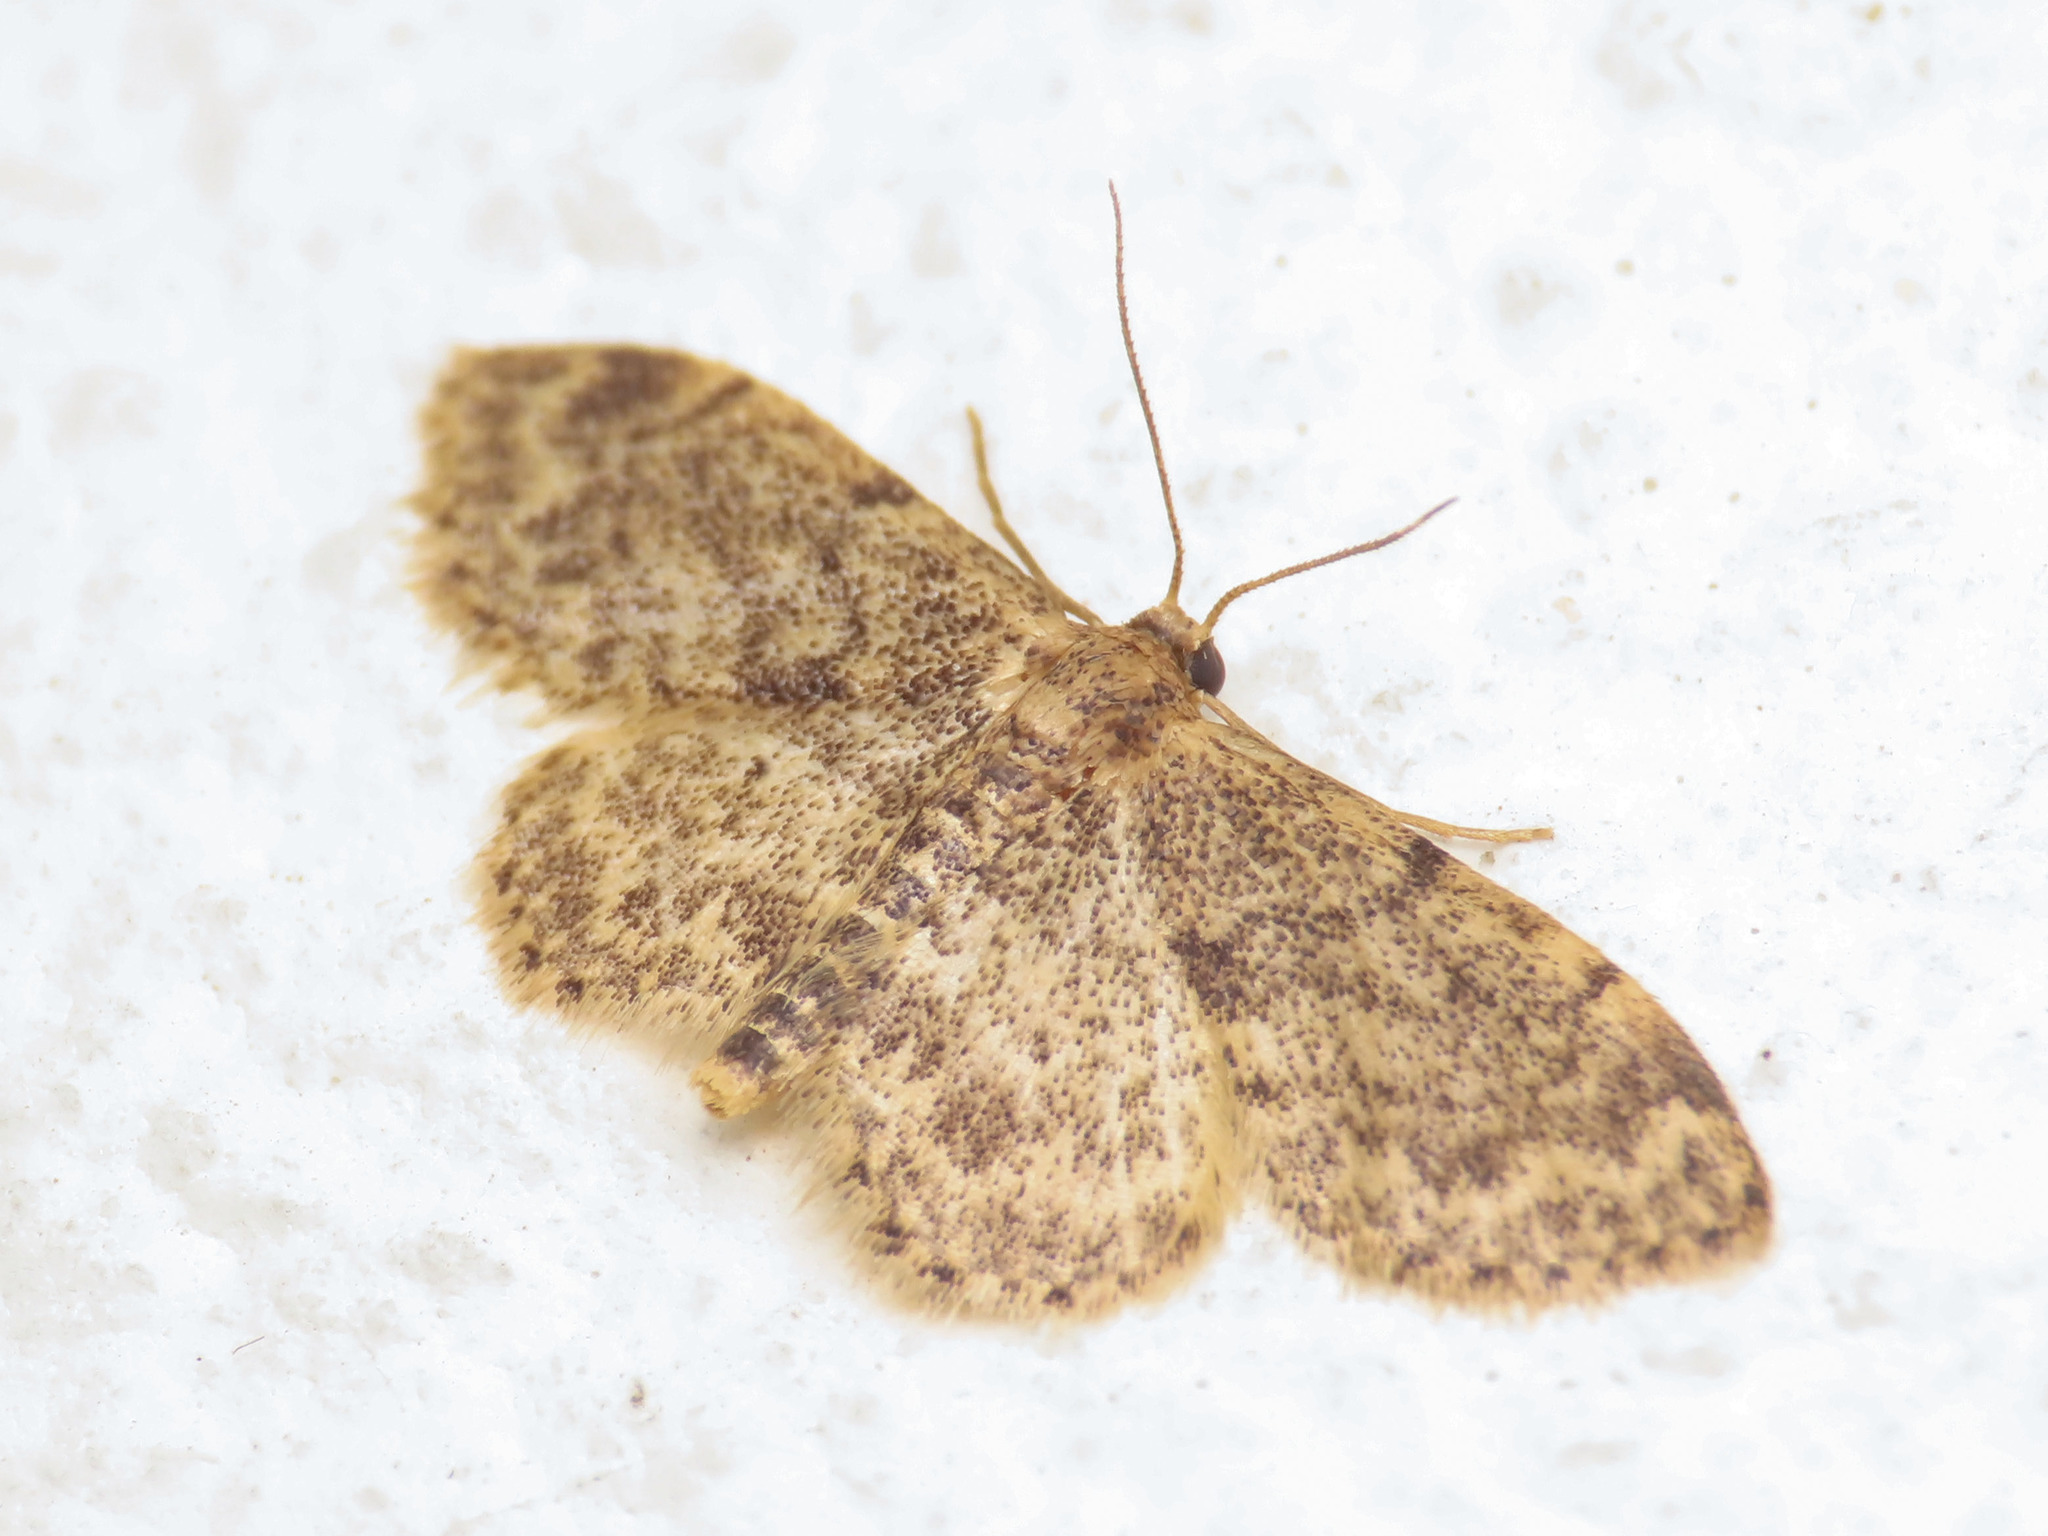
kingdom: Animalia
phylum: Arthropoda
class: Insecta
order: Lepidoptera
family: Geometridae
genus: Idaea
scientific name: Idaea inquinata
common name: Rusty wave
